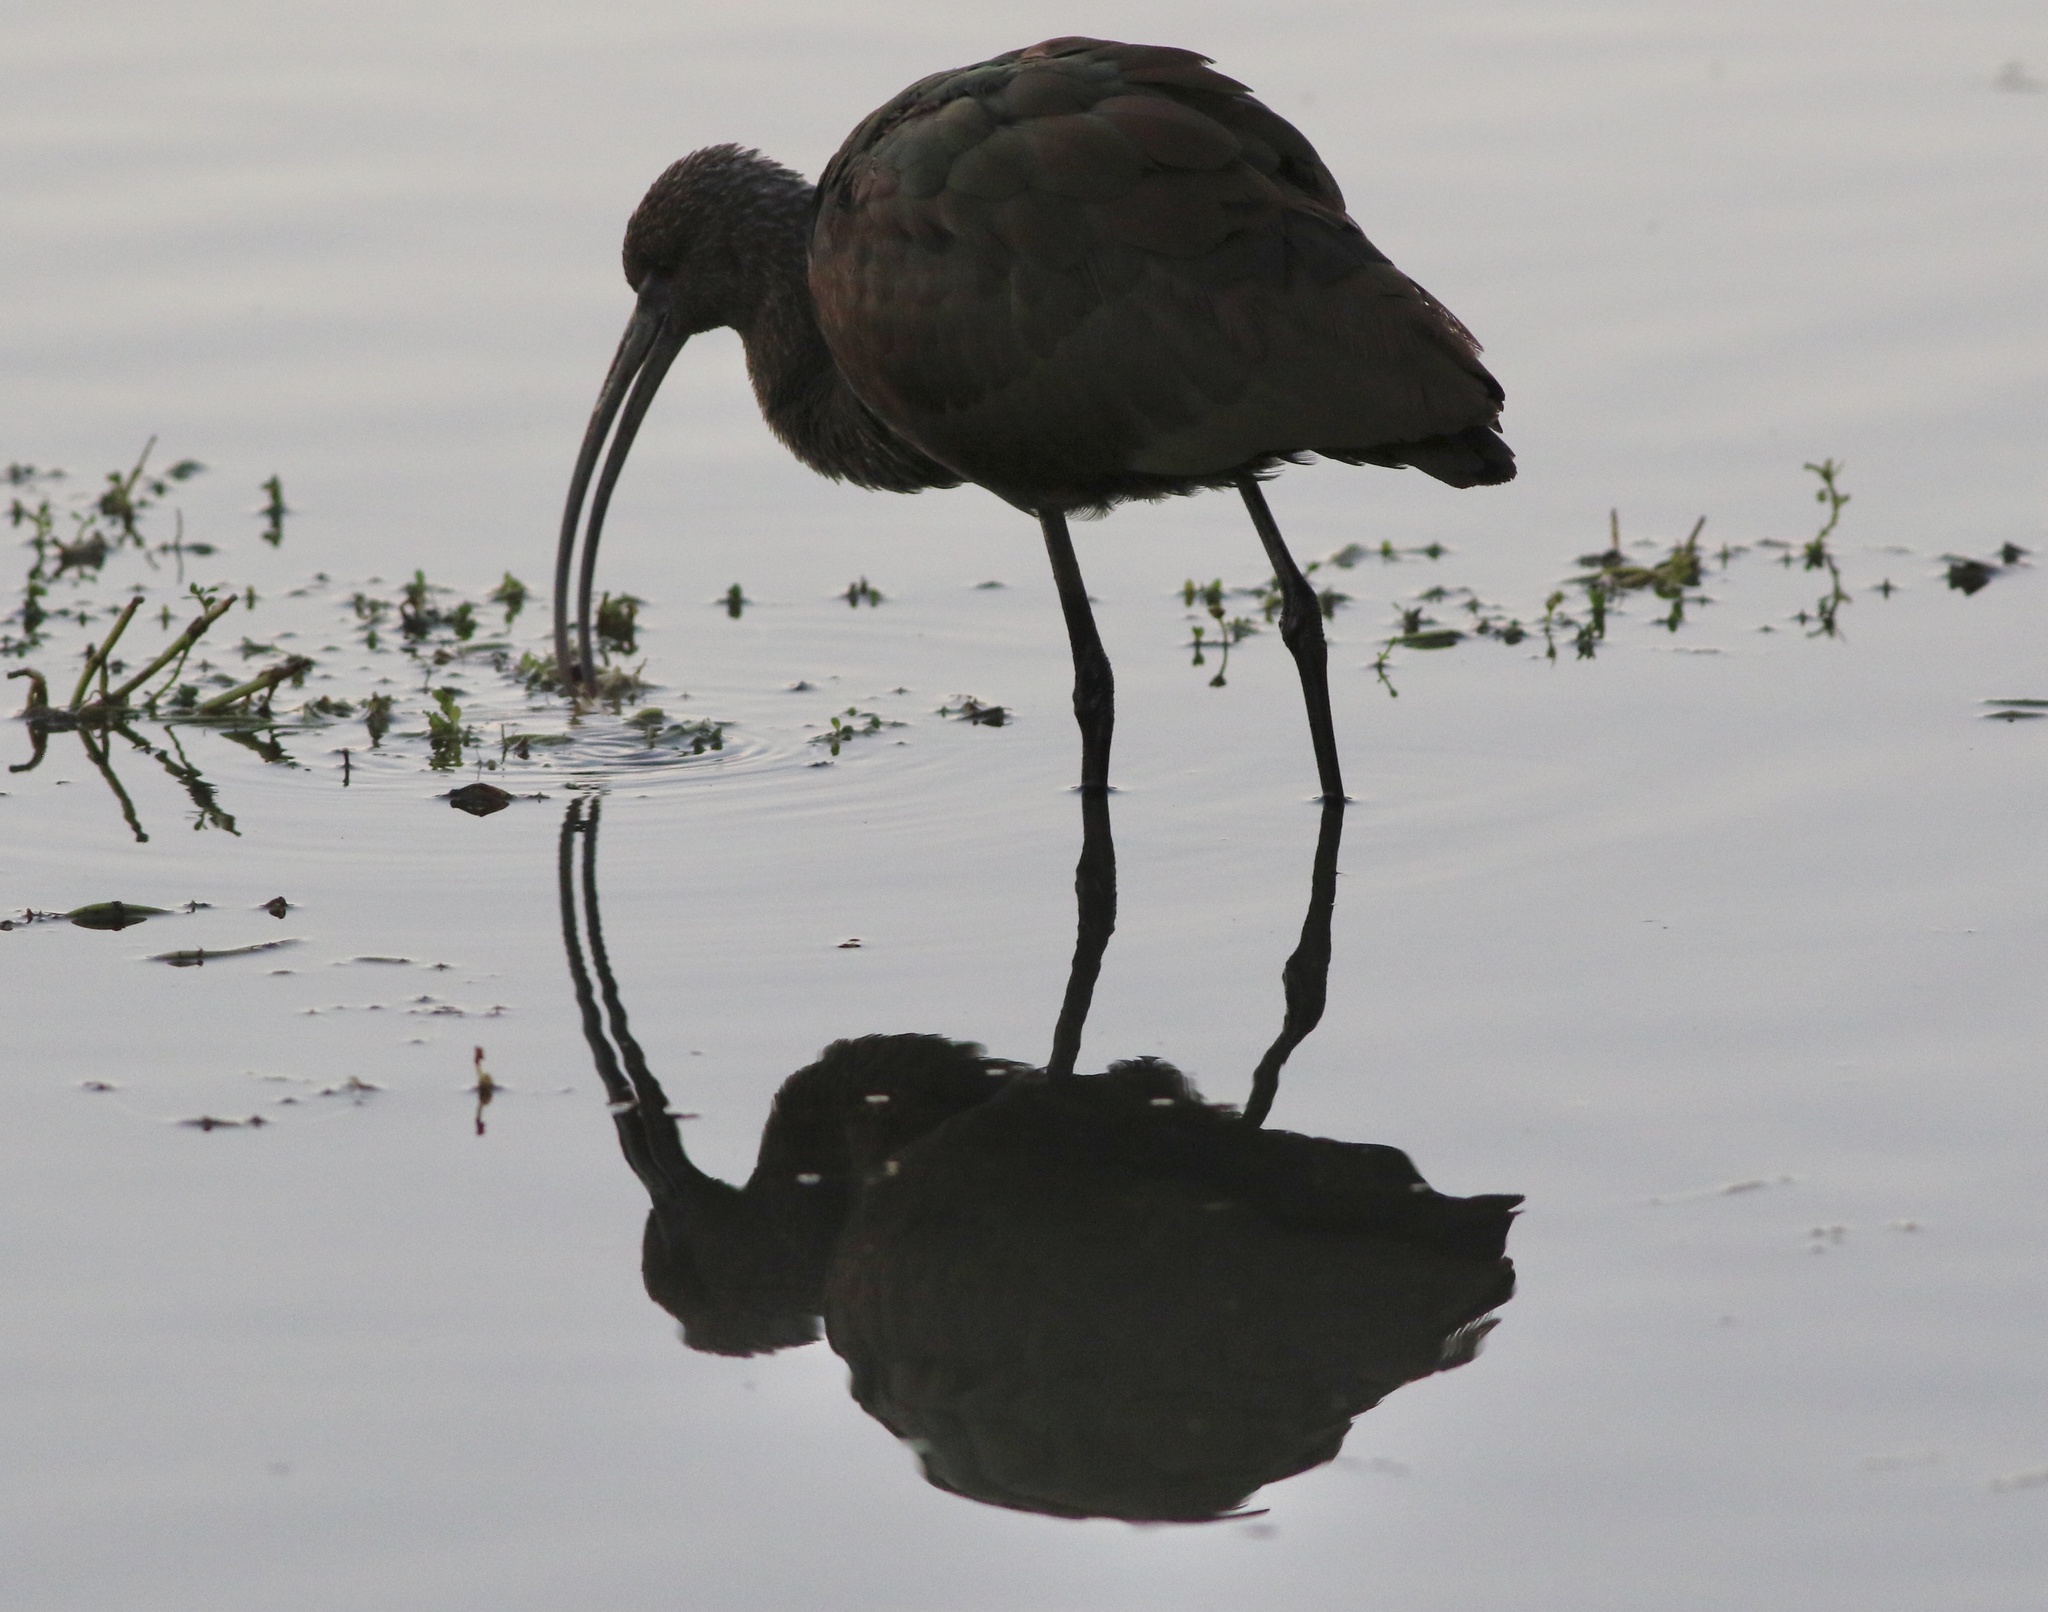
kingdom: Animalia
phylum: Chordata
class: Aves
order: Pelecaniformes
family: Threskiornithidae
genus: Plegadis
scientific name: Plegadis chihi
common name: White-faced ibis
